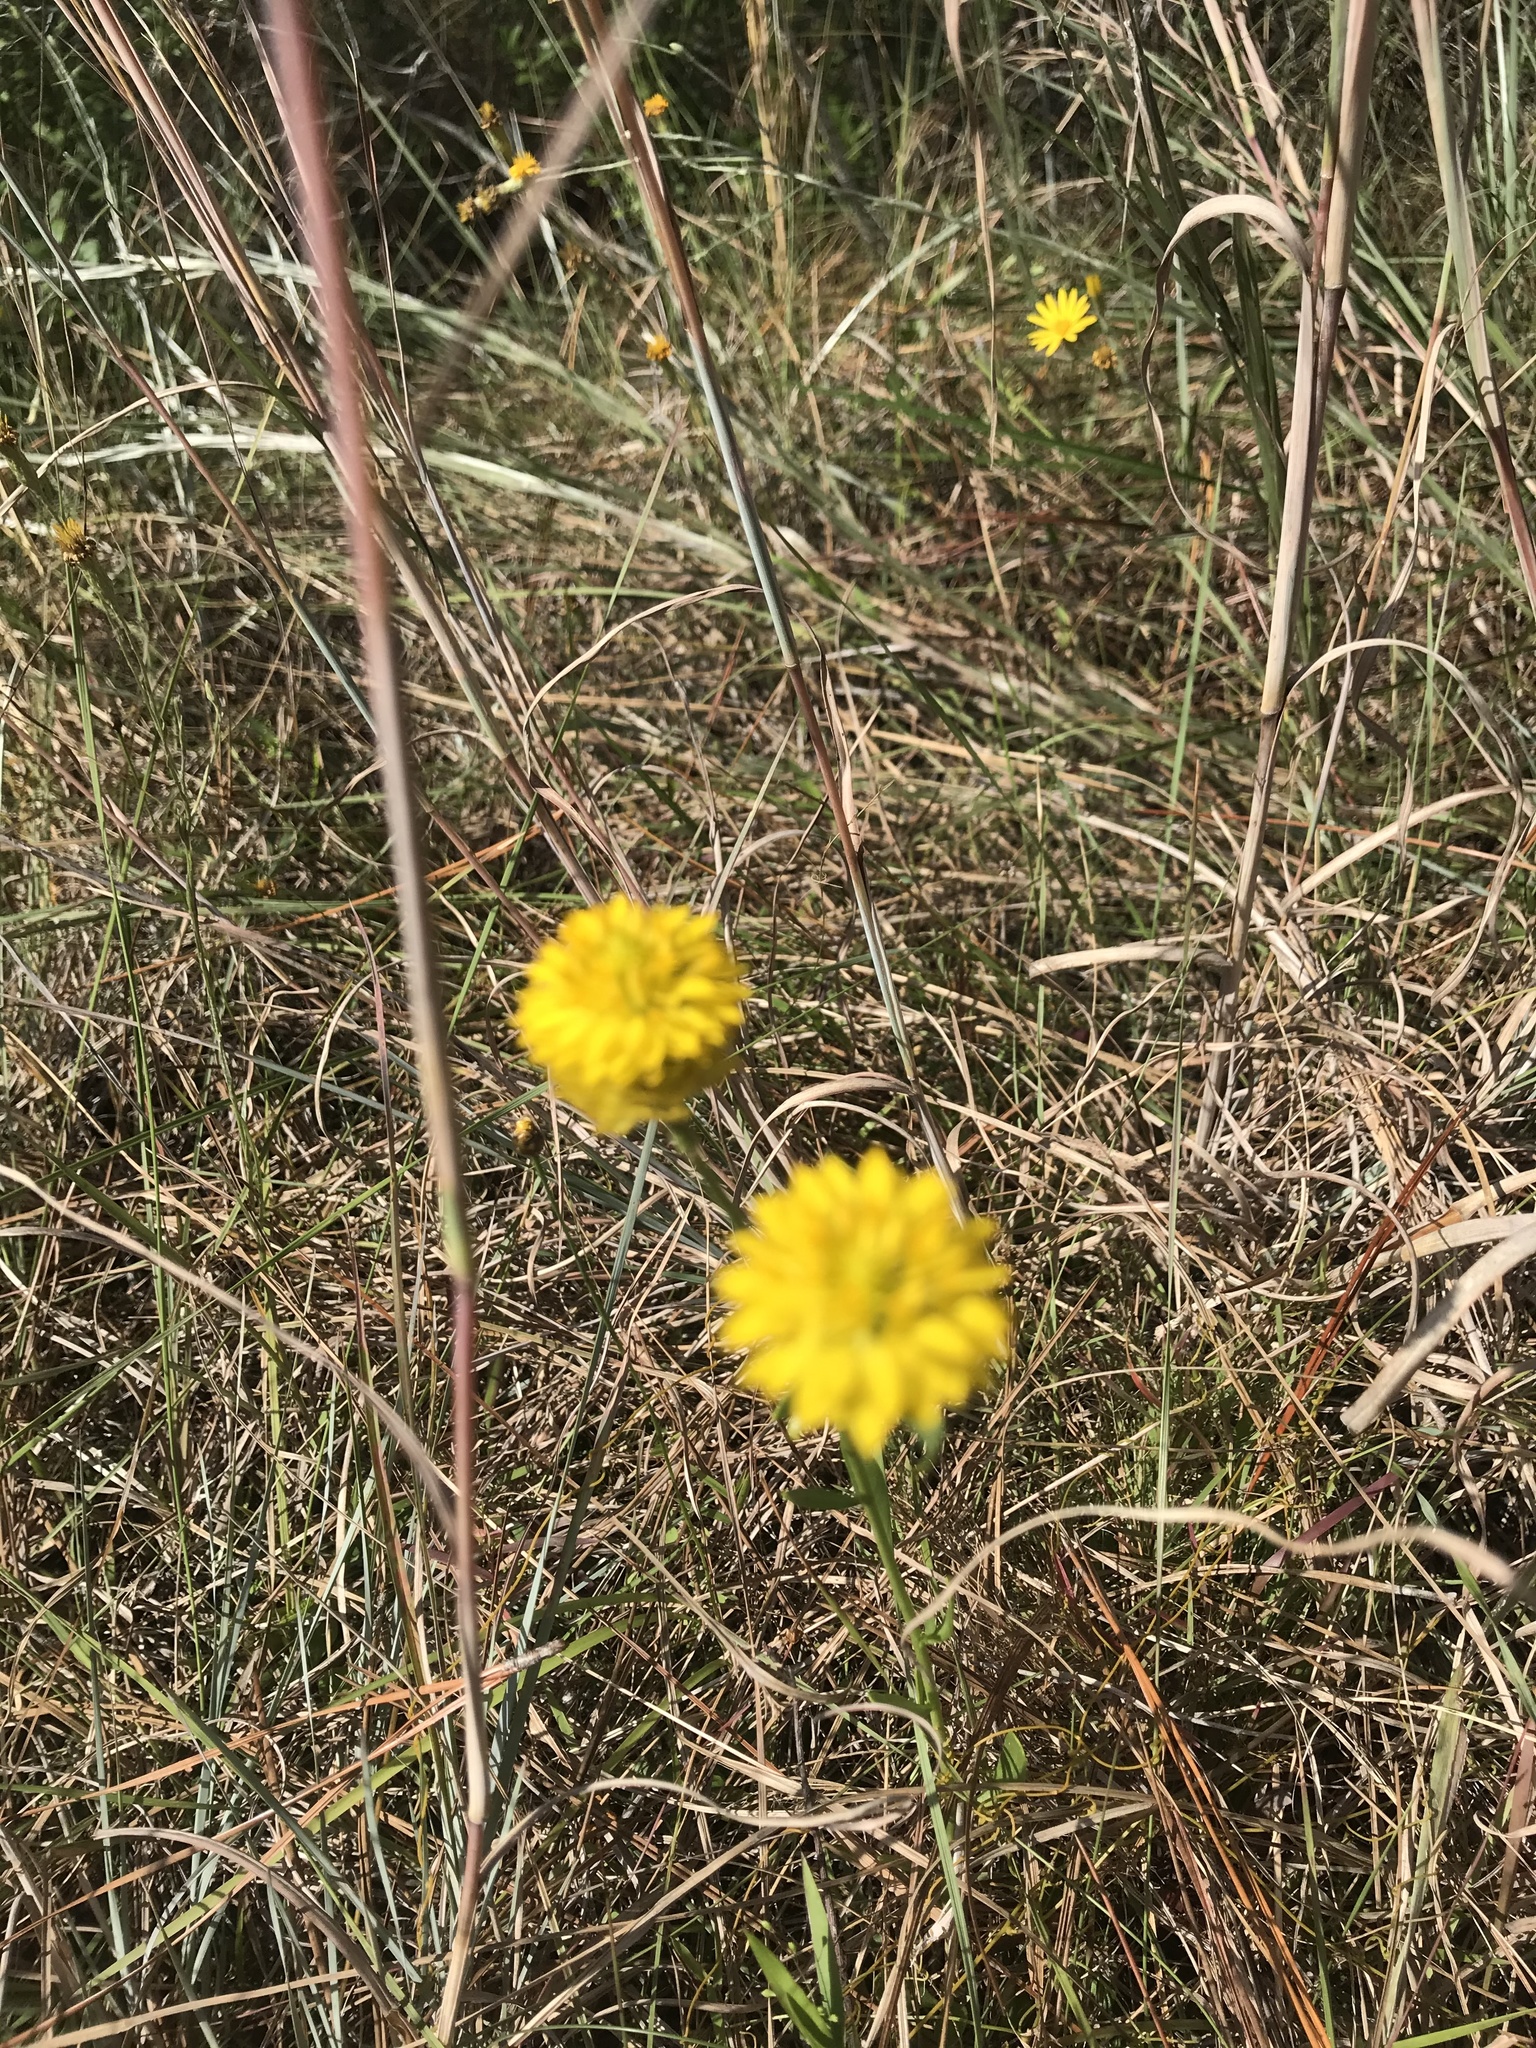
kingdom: Plantae
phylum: Tracheophyta
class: Magnoliopsida
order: Fabales
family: Polygalaceae
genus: Polygala
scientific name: Polygala rugelii
